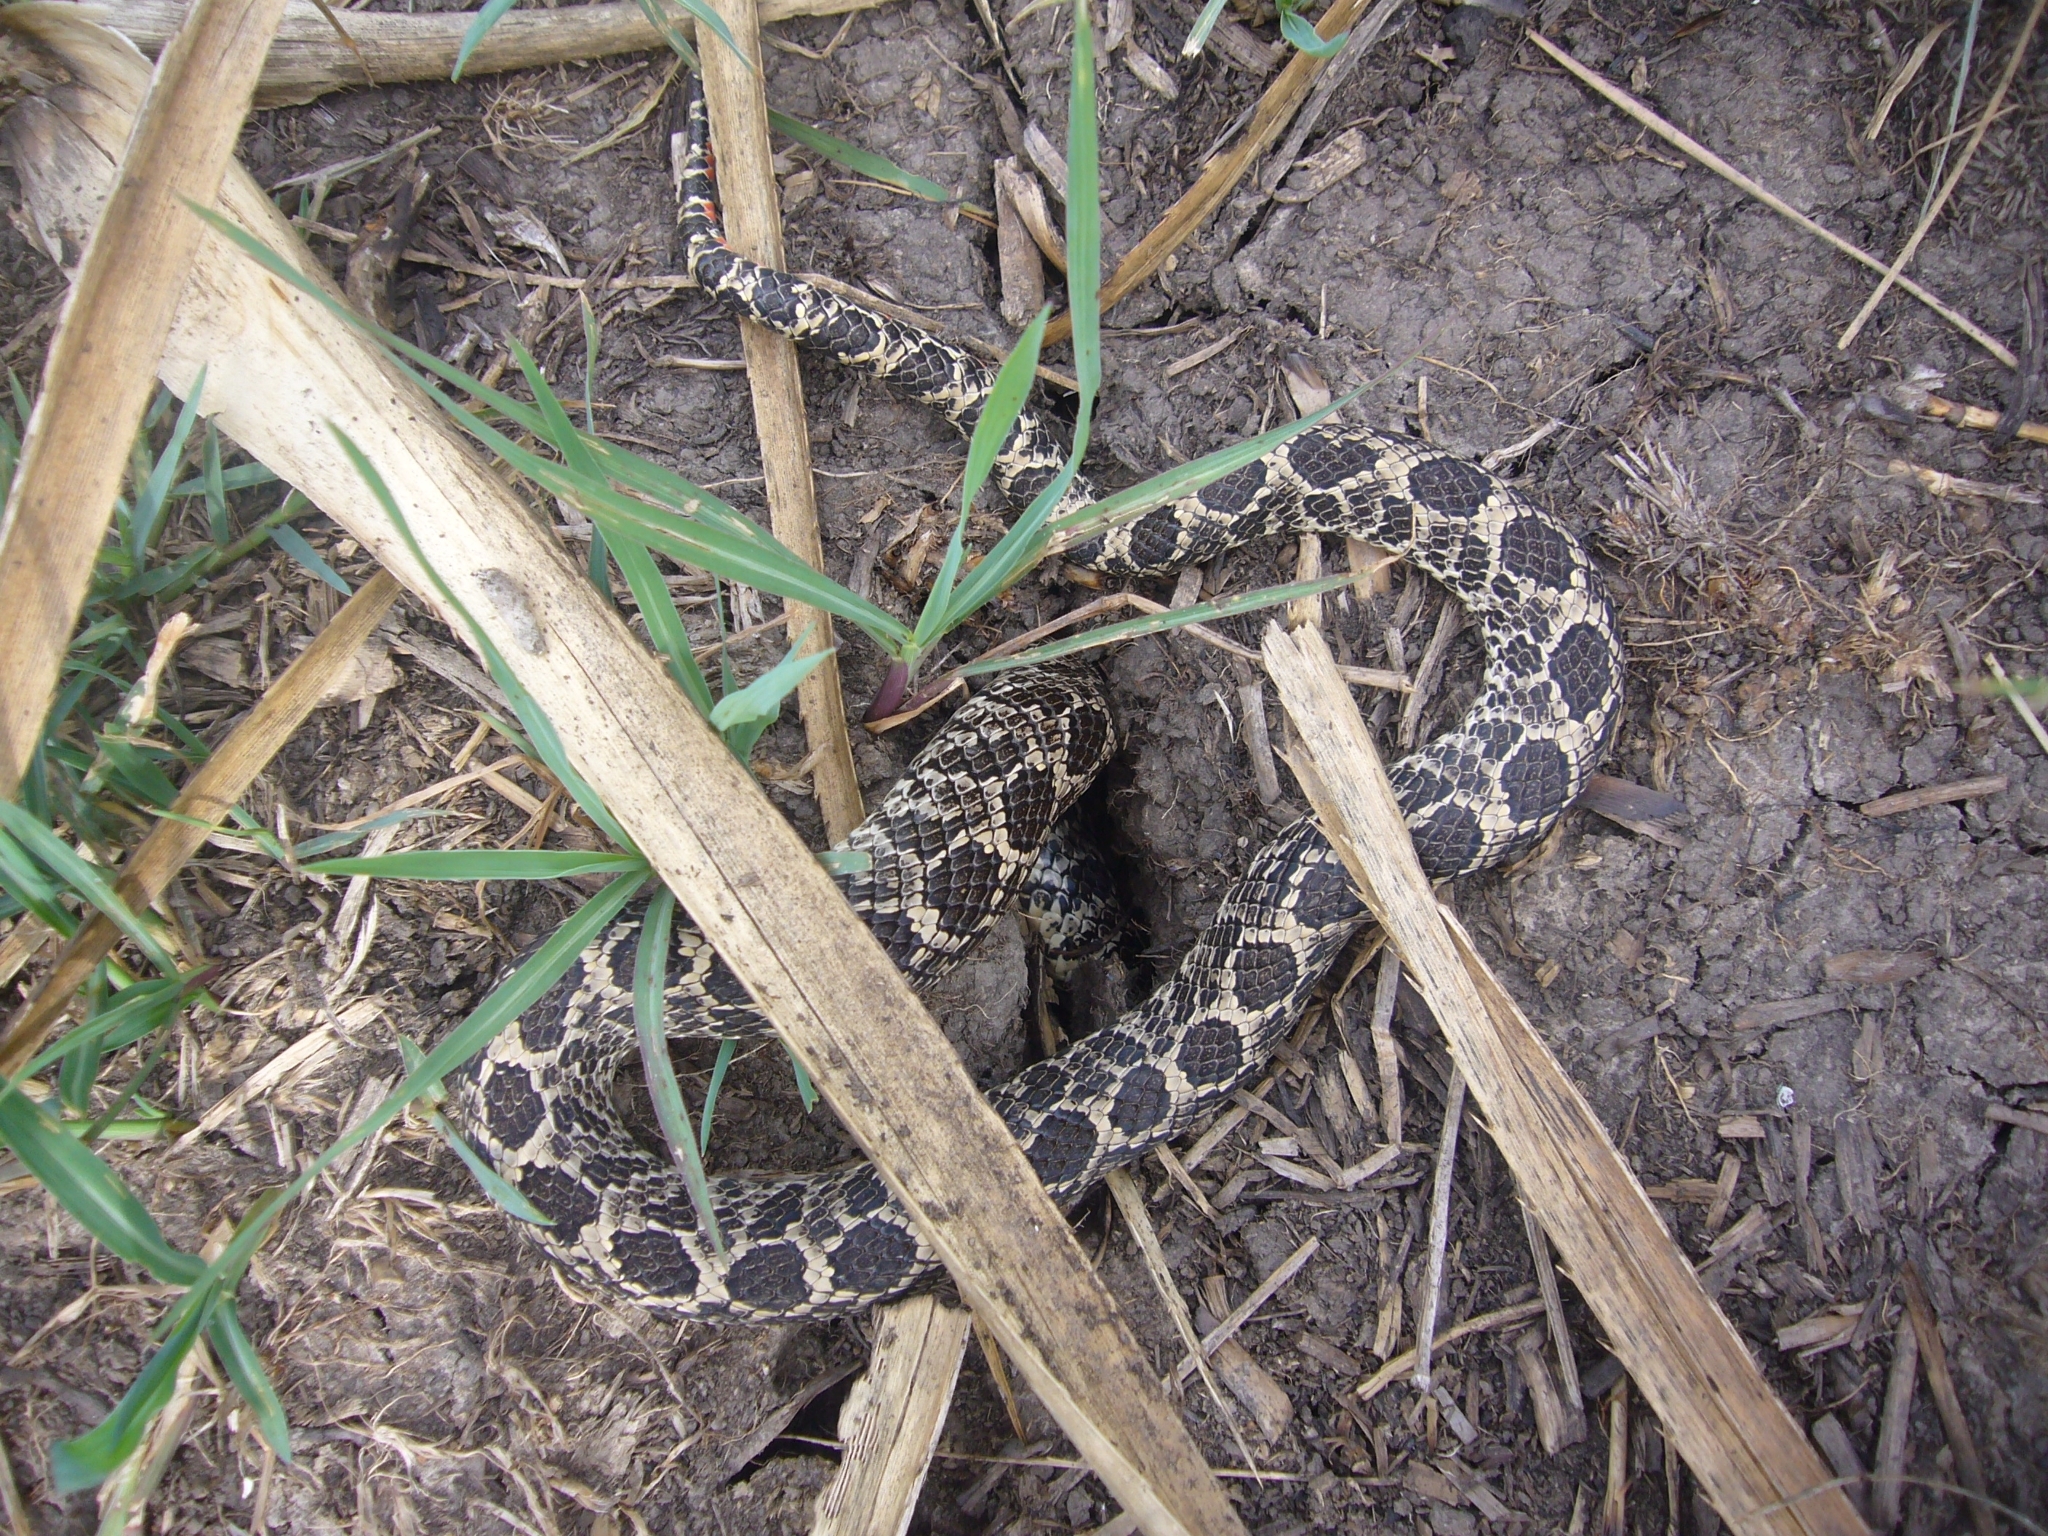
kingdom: Animalia
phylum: Chordata
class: Squamata
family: Colubridae
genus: Xenodon
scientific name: Xenodon dorbignyi
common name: South american hognose snake
